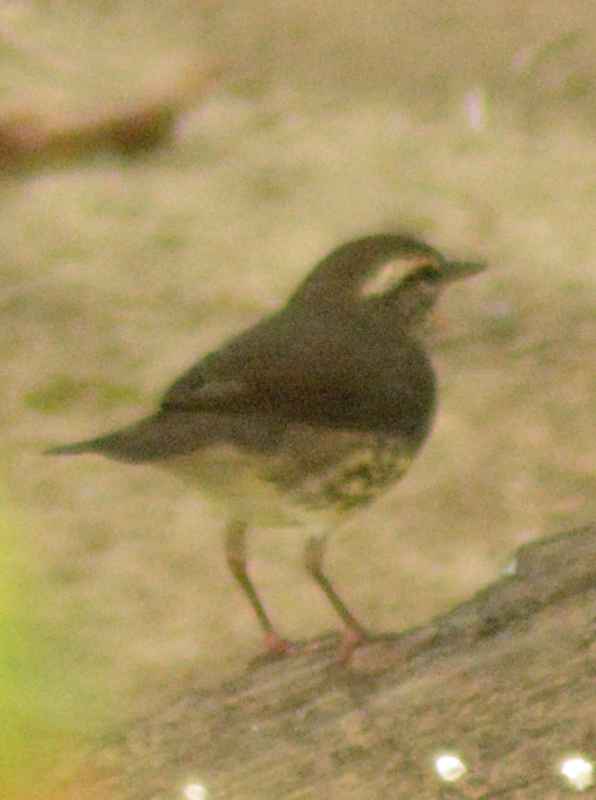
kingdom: Animalia
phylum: Chordata
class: Aves
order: Passeriformes
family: Parulidae
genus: Parkesia
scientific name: Parkesia noveboracensis
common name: Northern waterthrush
